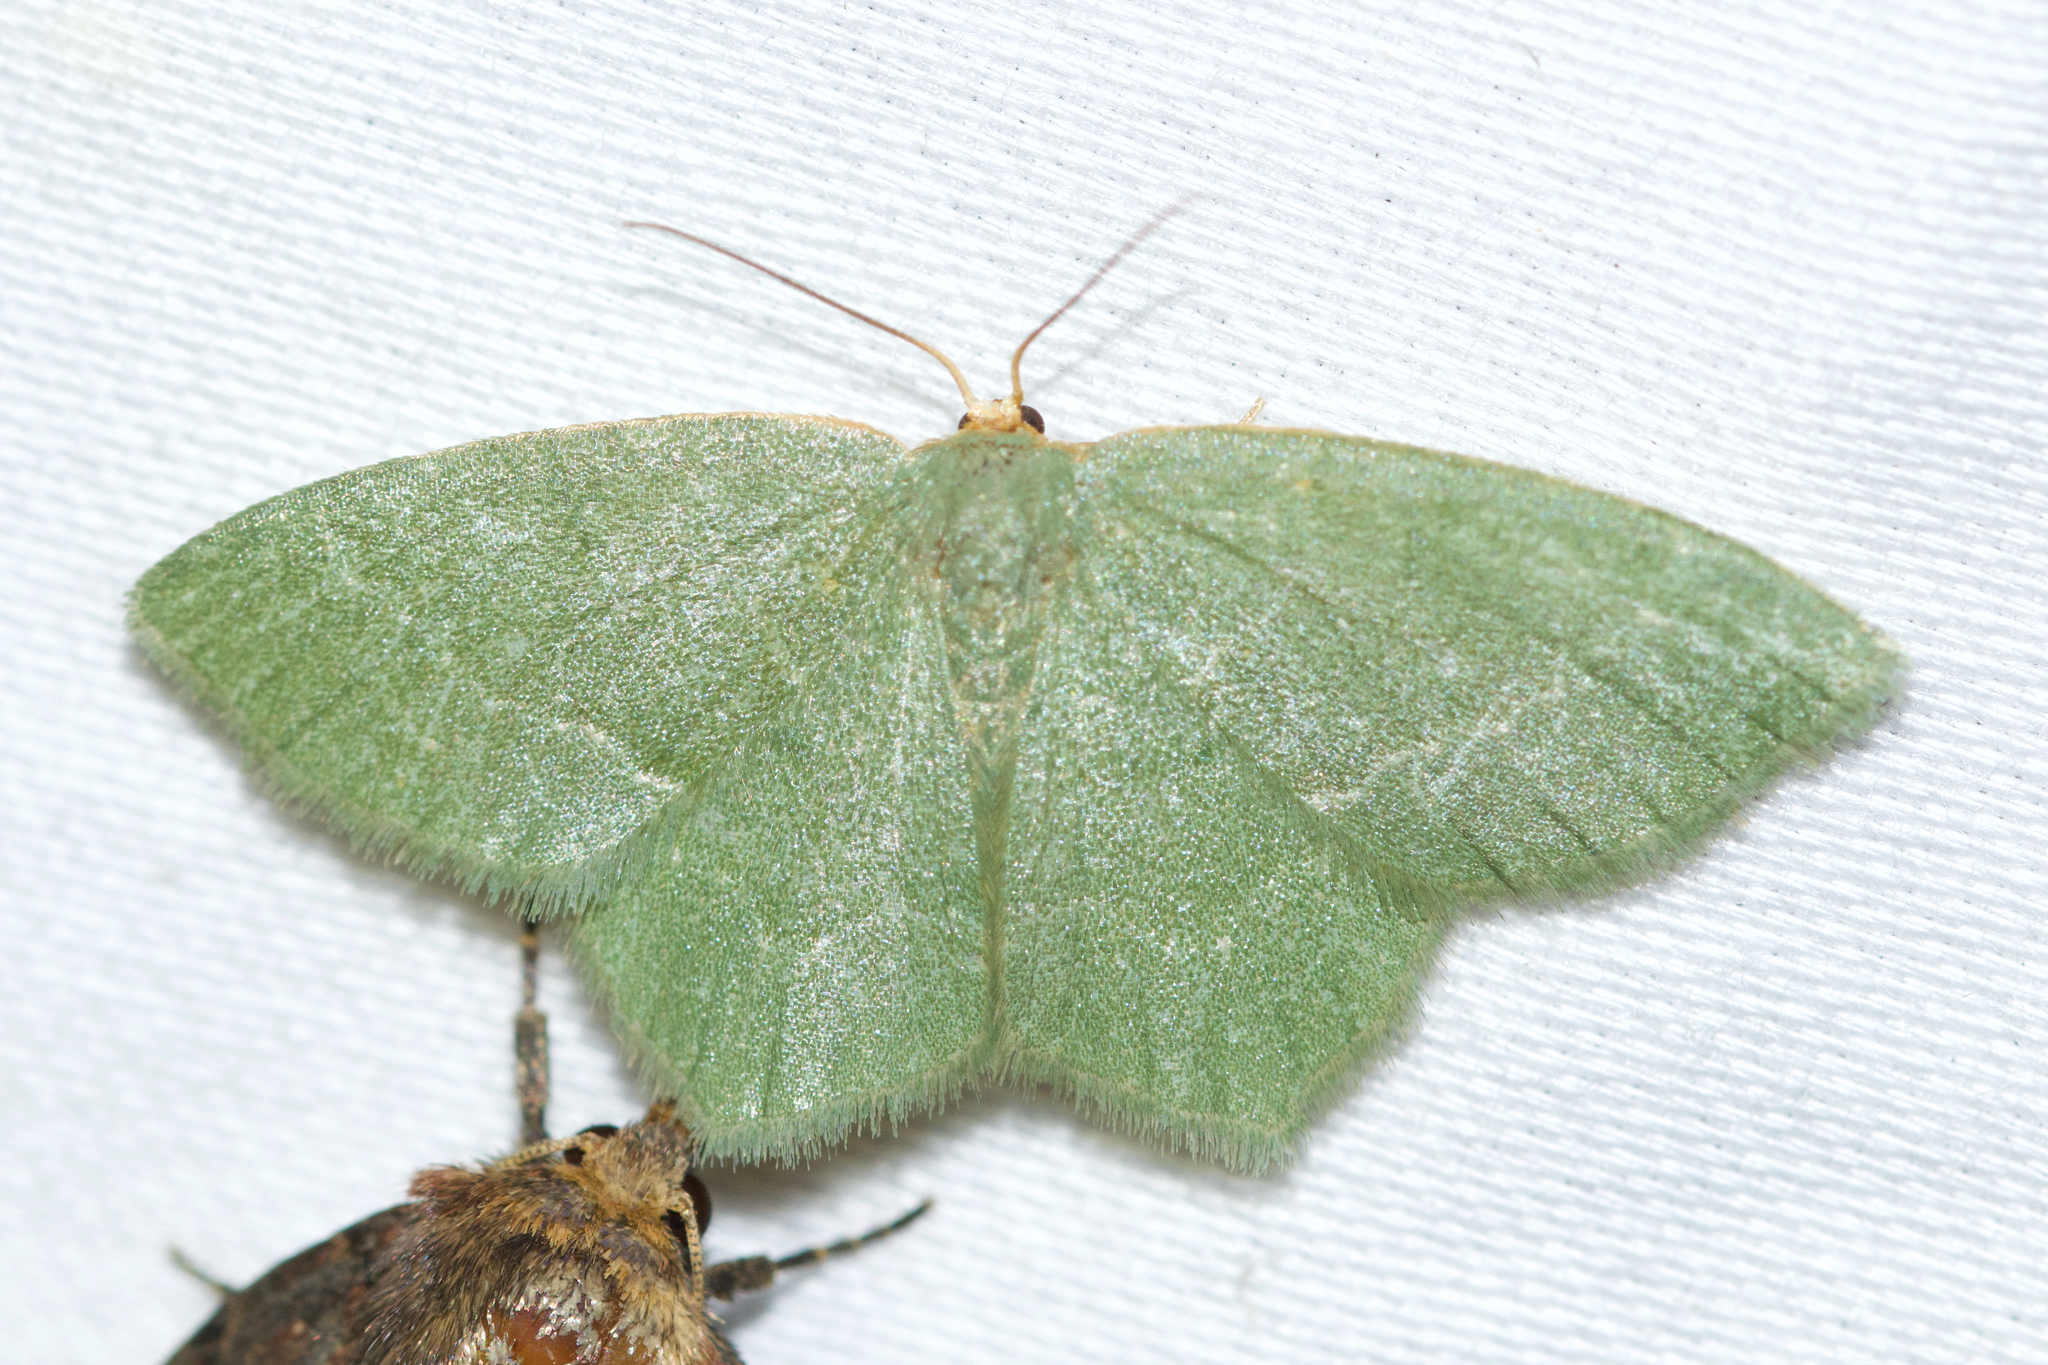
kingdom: Animalia
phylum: Arthropoda
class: Insecta
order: Lepidoptera
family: Geometridae
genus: Thalera
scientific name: Thalera pistasciaria
